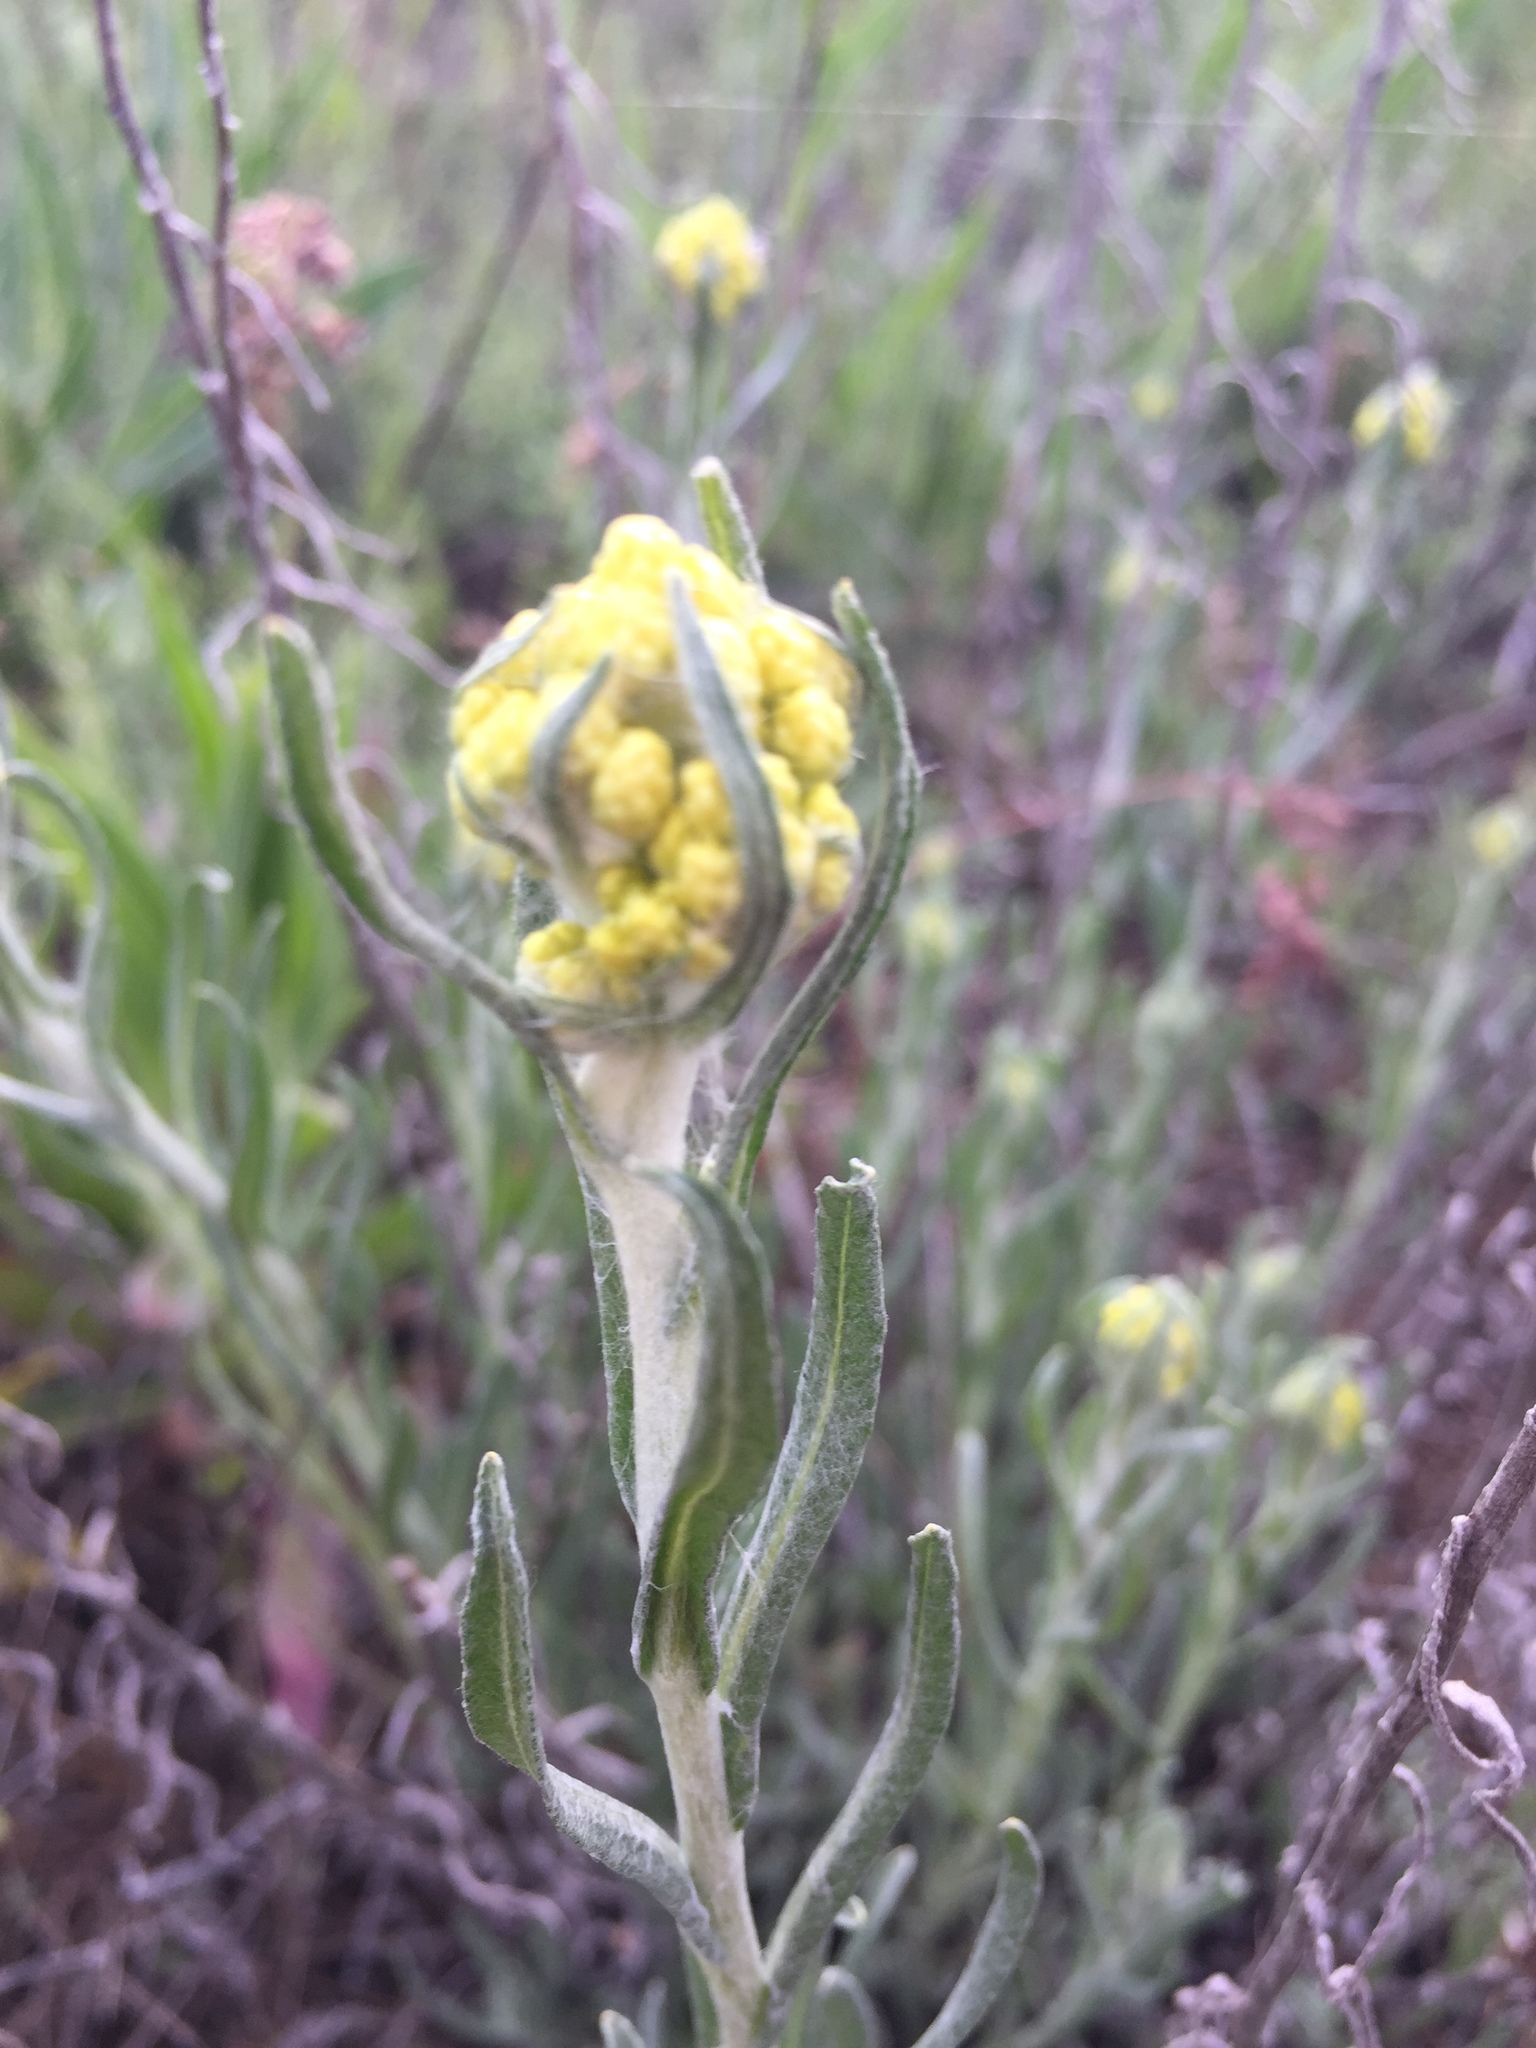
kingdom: Plantae
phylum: Tracheophyta
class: Magnoliopsida
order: Asterales
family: Asteraceae
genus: Helichrysum
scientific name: Helichrysum arenarium
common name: Strawflower
